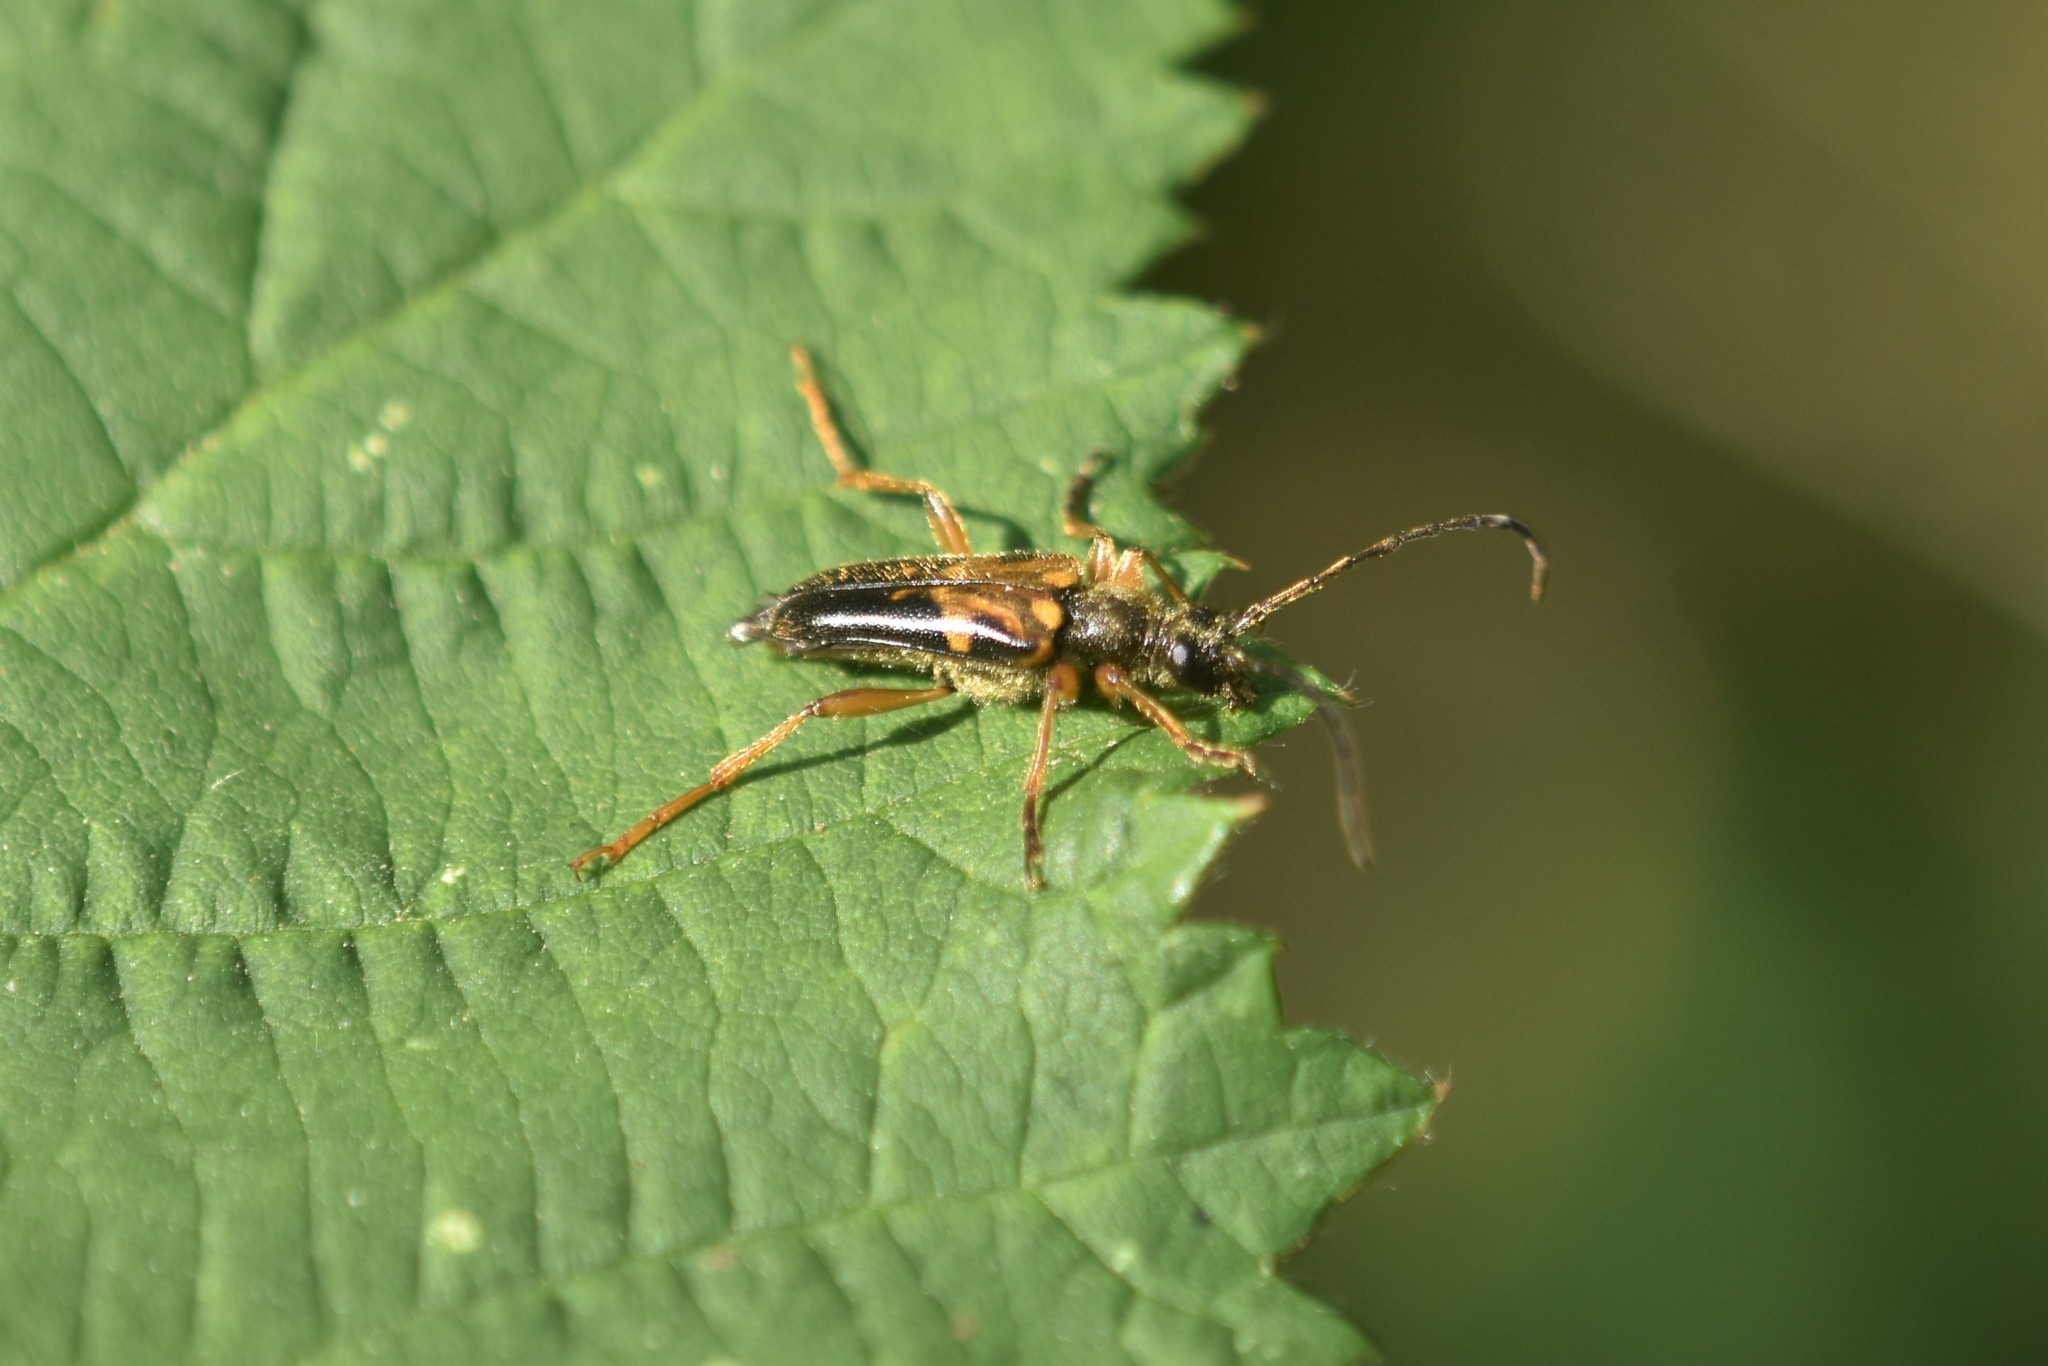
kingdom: Animalia
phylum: Arthropoda
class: Insecta
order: Coleoptera
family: Cerambycidae
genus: Xestoleptura
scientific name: Xestoleptura crassipes
